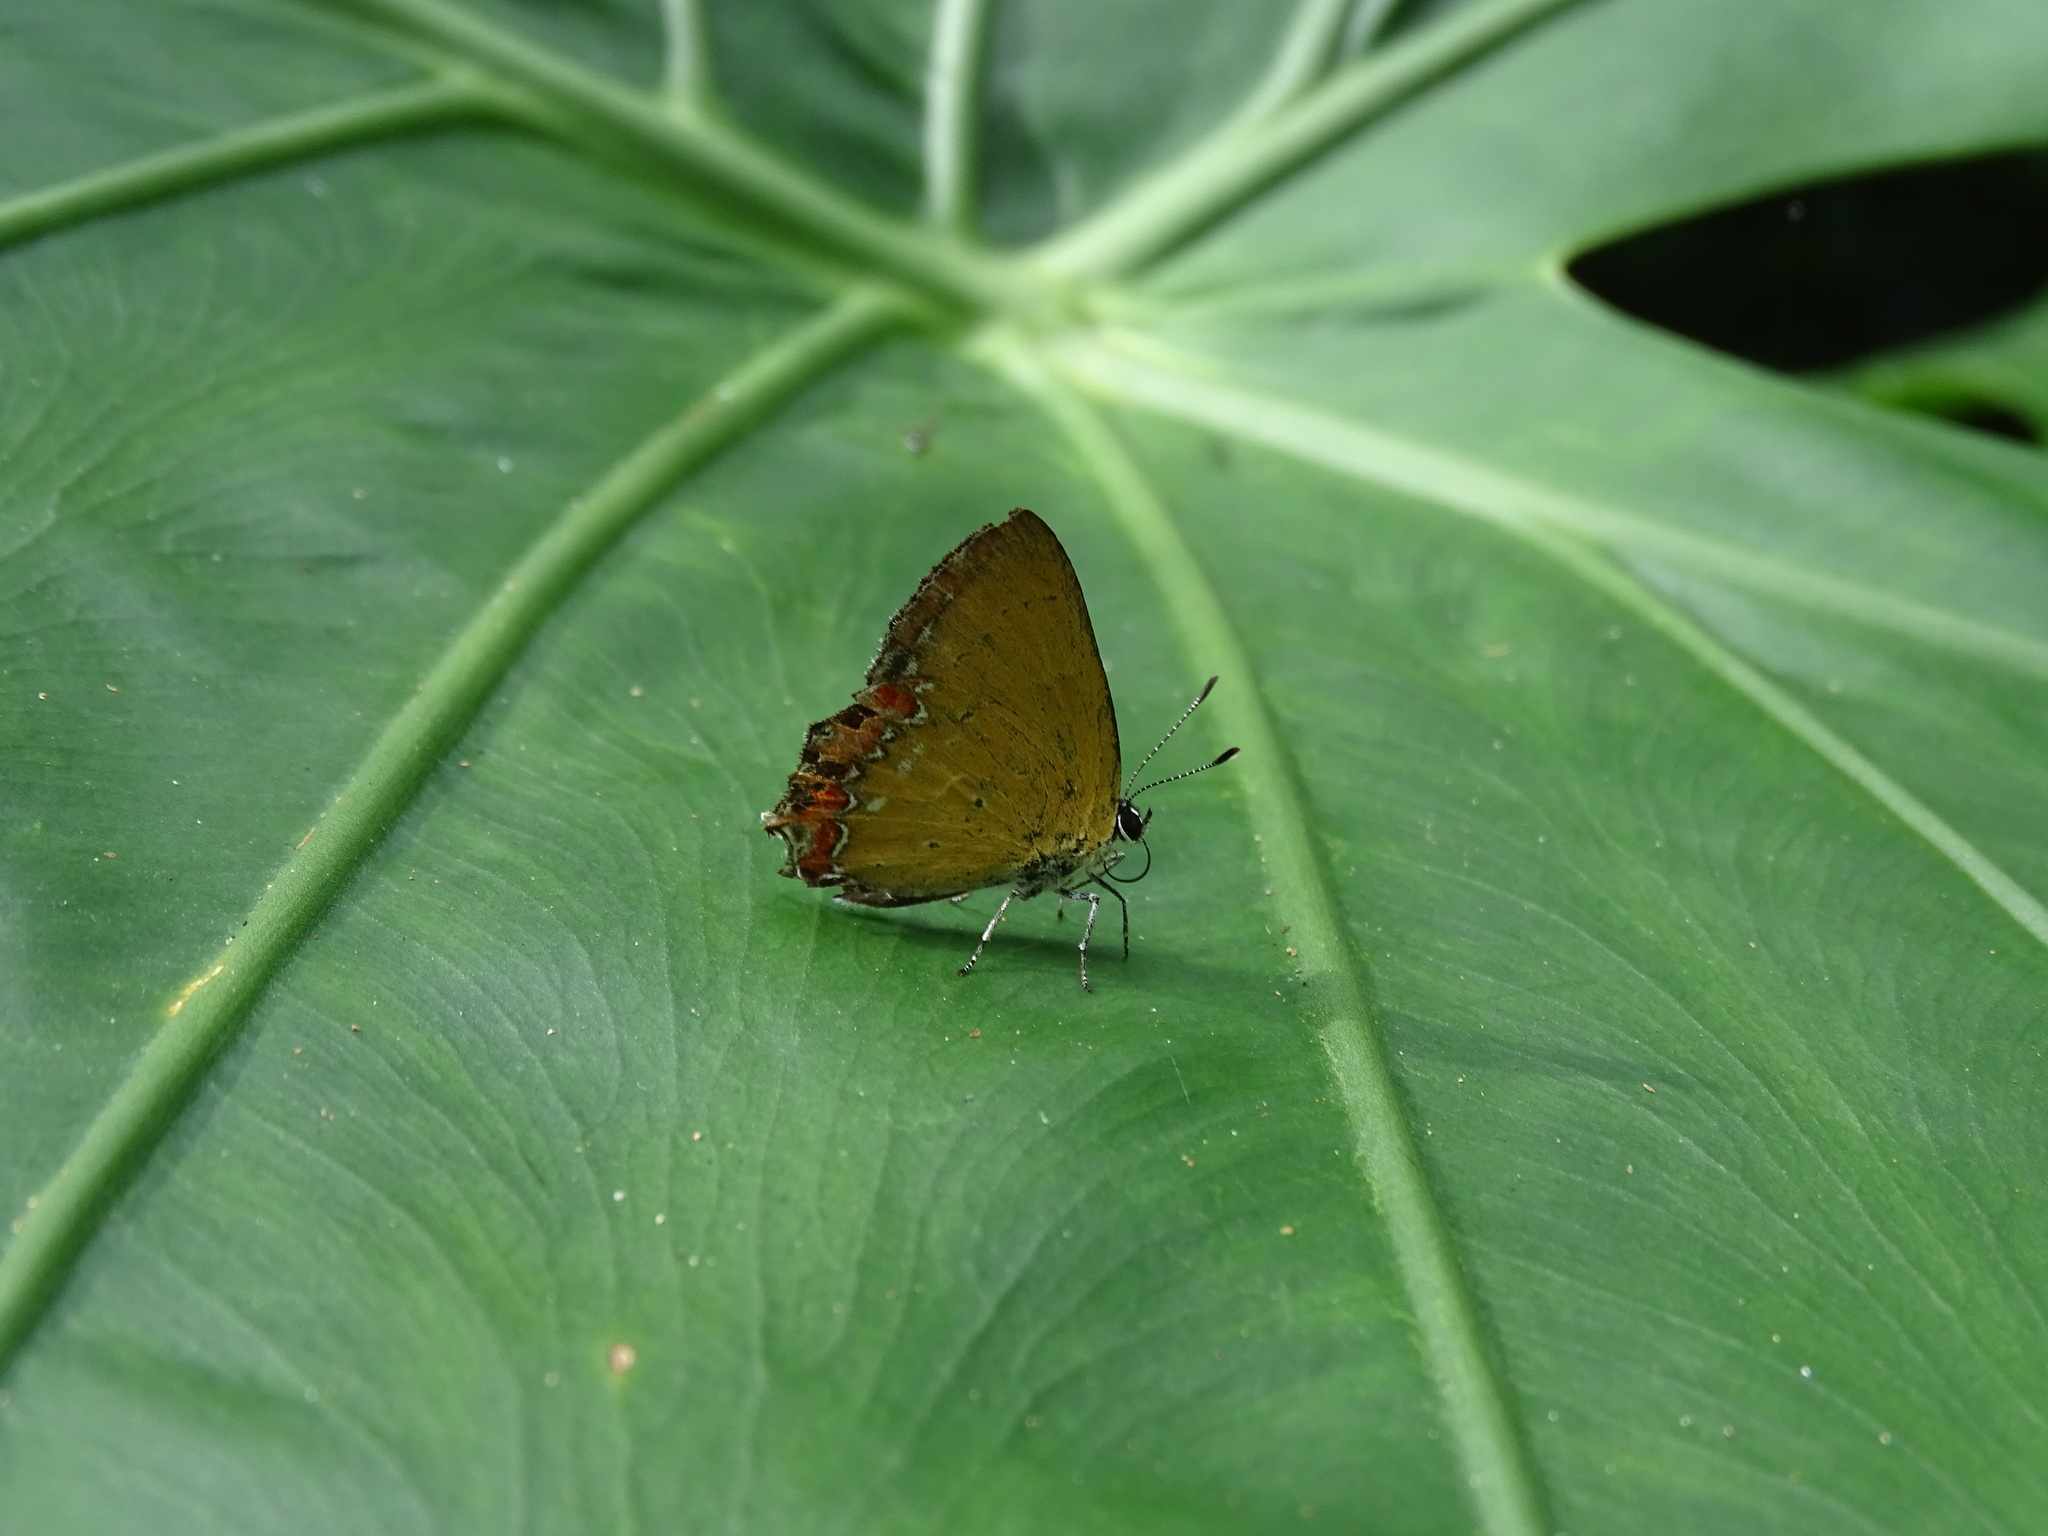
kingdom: Animalia
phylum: Arthropoda
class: Insecta
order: Lepidoptera
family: Lycaenidae
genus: Heliophorus
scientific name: Heliophorus ila
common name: Restricted purple sapphire
